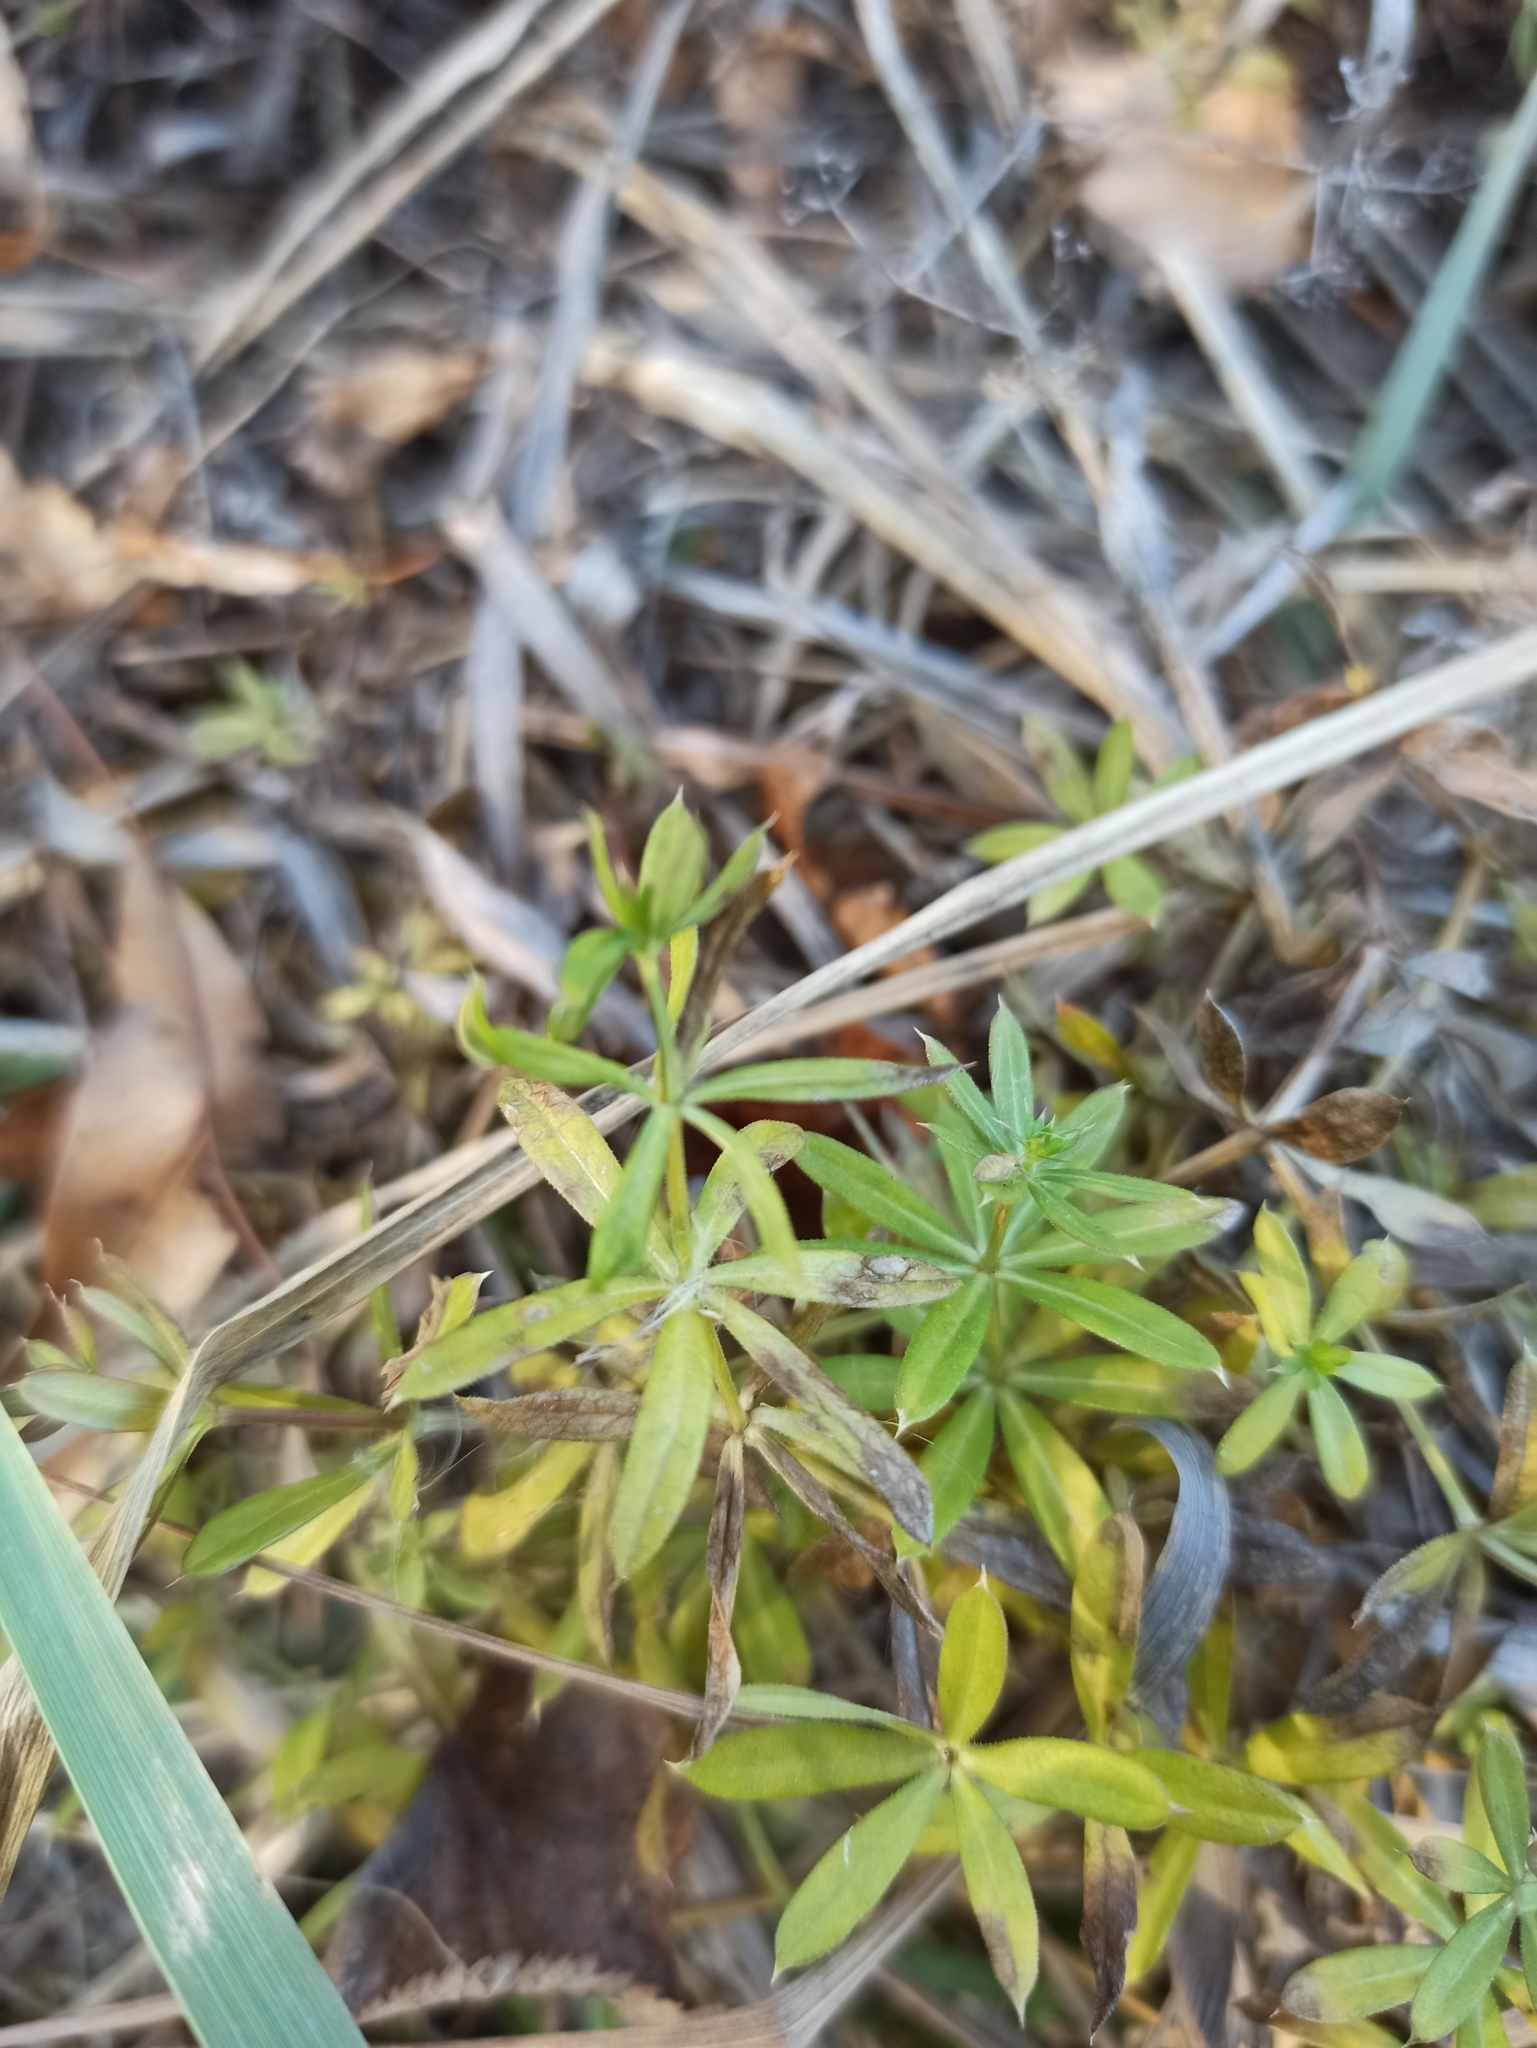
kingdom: Plantae
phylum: Tracheophyta
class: Magnoliopsida
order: Gentianales
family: Rubiaceae
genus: Galium
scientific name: Galium mollugo
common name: Hedge bedstraw
